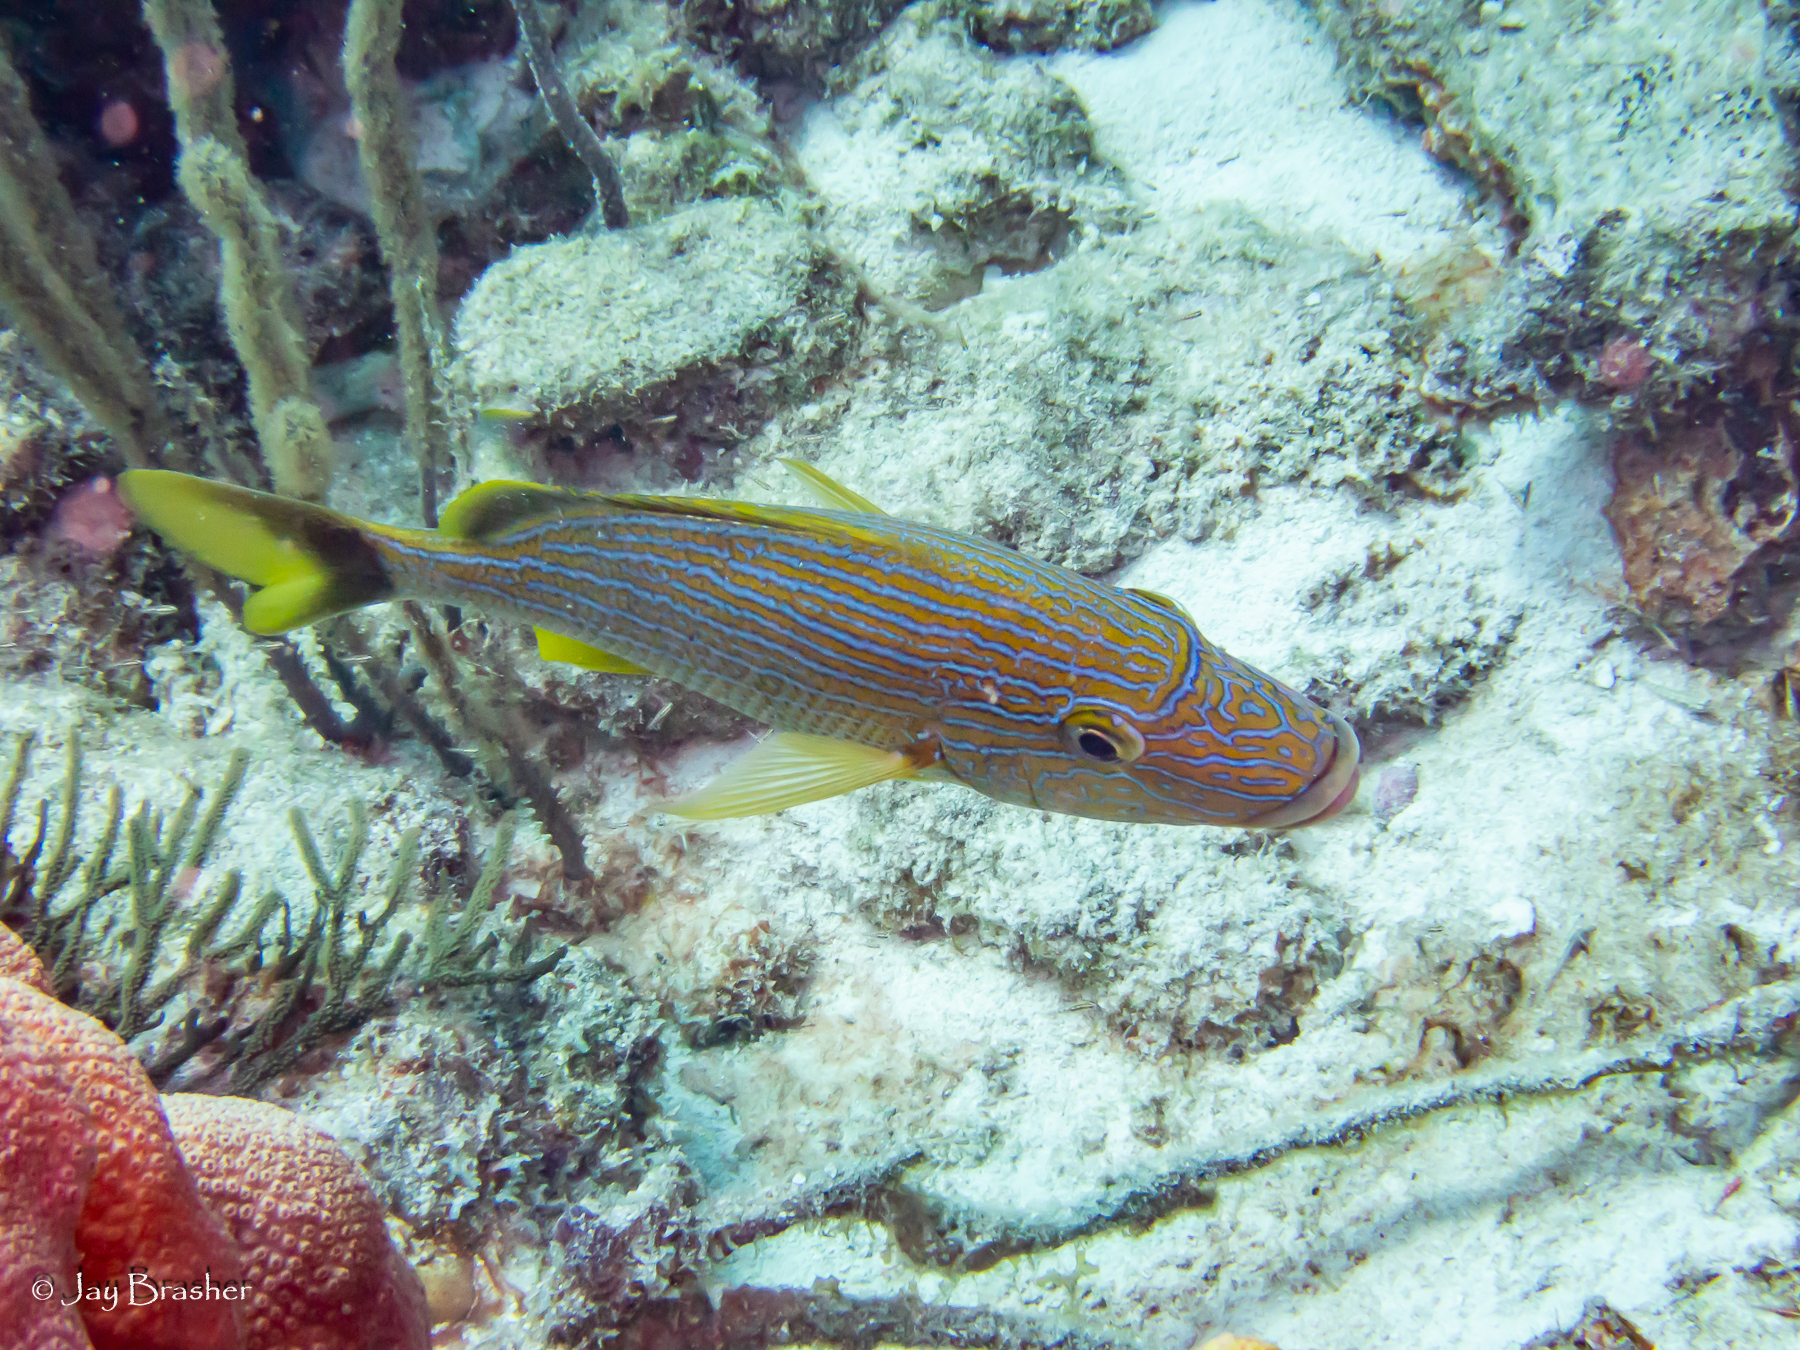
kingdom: Animalia
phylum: Chordata
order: Perciformes
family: Haemulidae
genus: Haemulon
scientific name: Haemulon sciurus
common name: Bluestriped grunt
